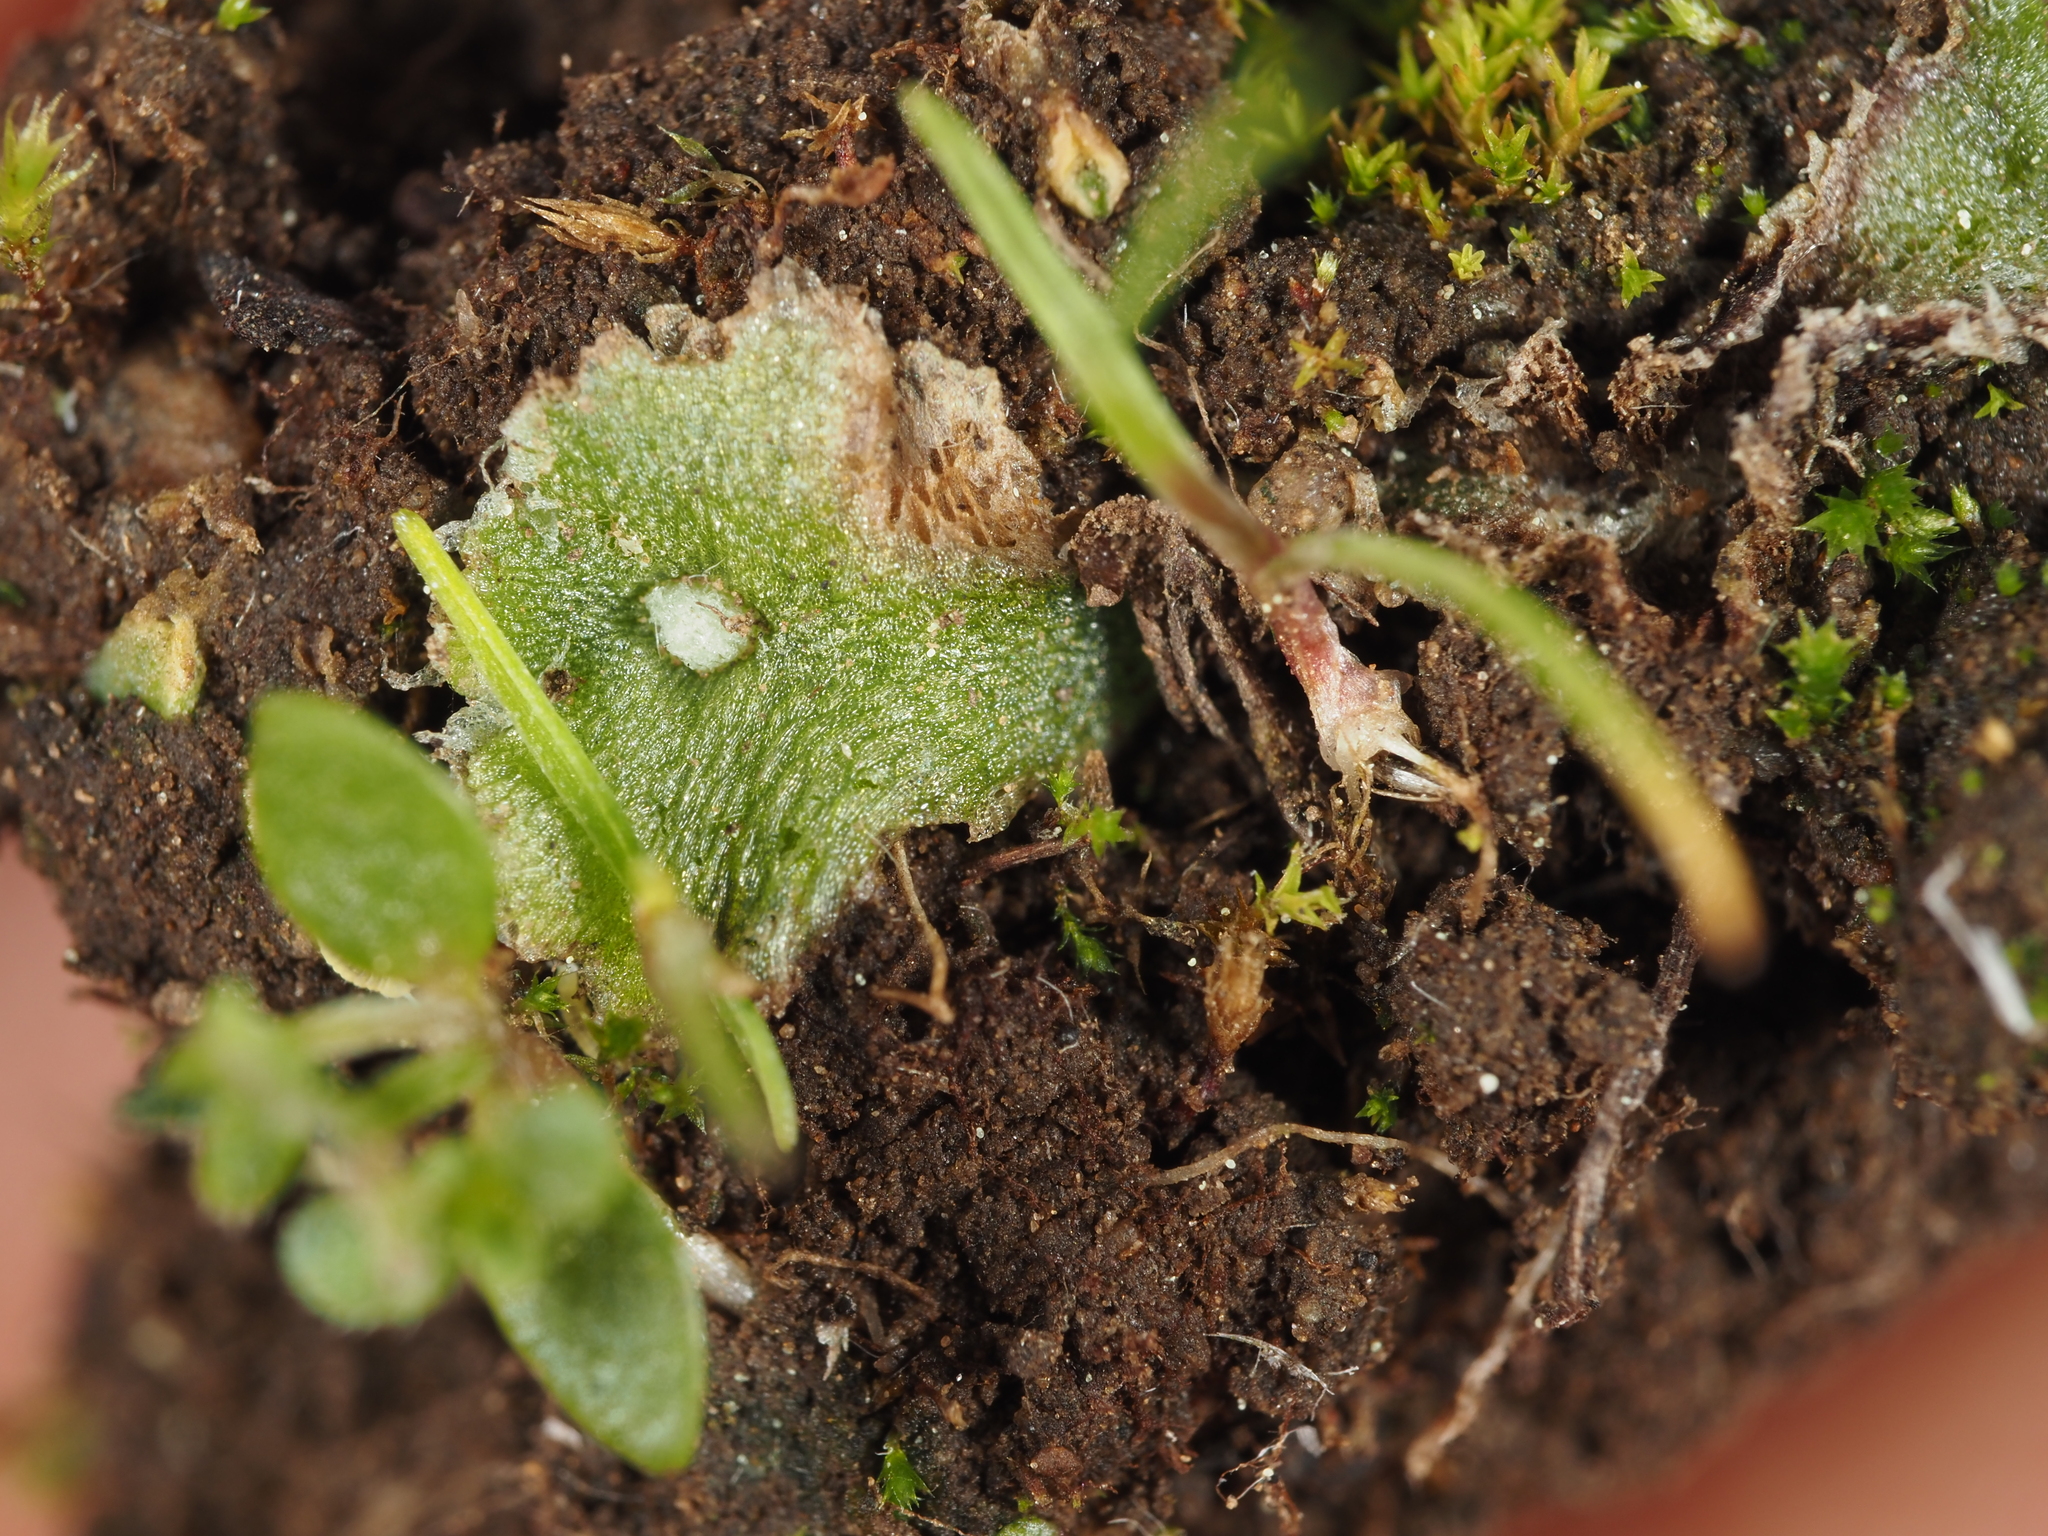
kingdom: Plantae
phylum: Marchantiophyta
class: Marchantiopsida
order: Marchantiales
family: Cleveaceae
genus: Clevea
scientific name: Clevea hyalina
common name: Hyaline liverwort
